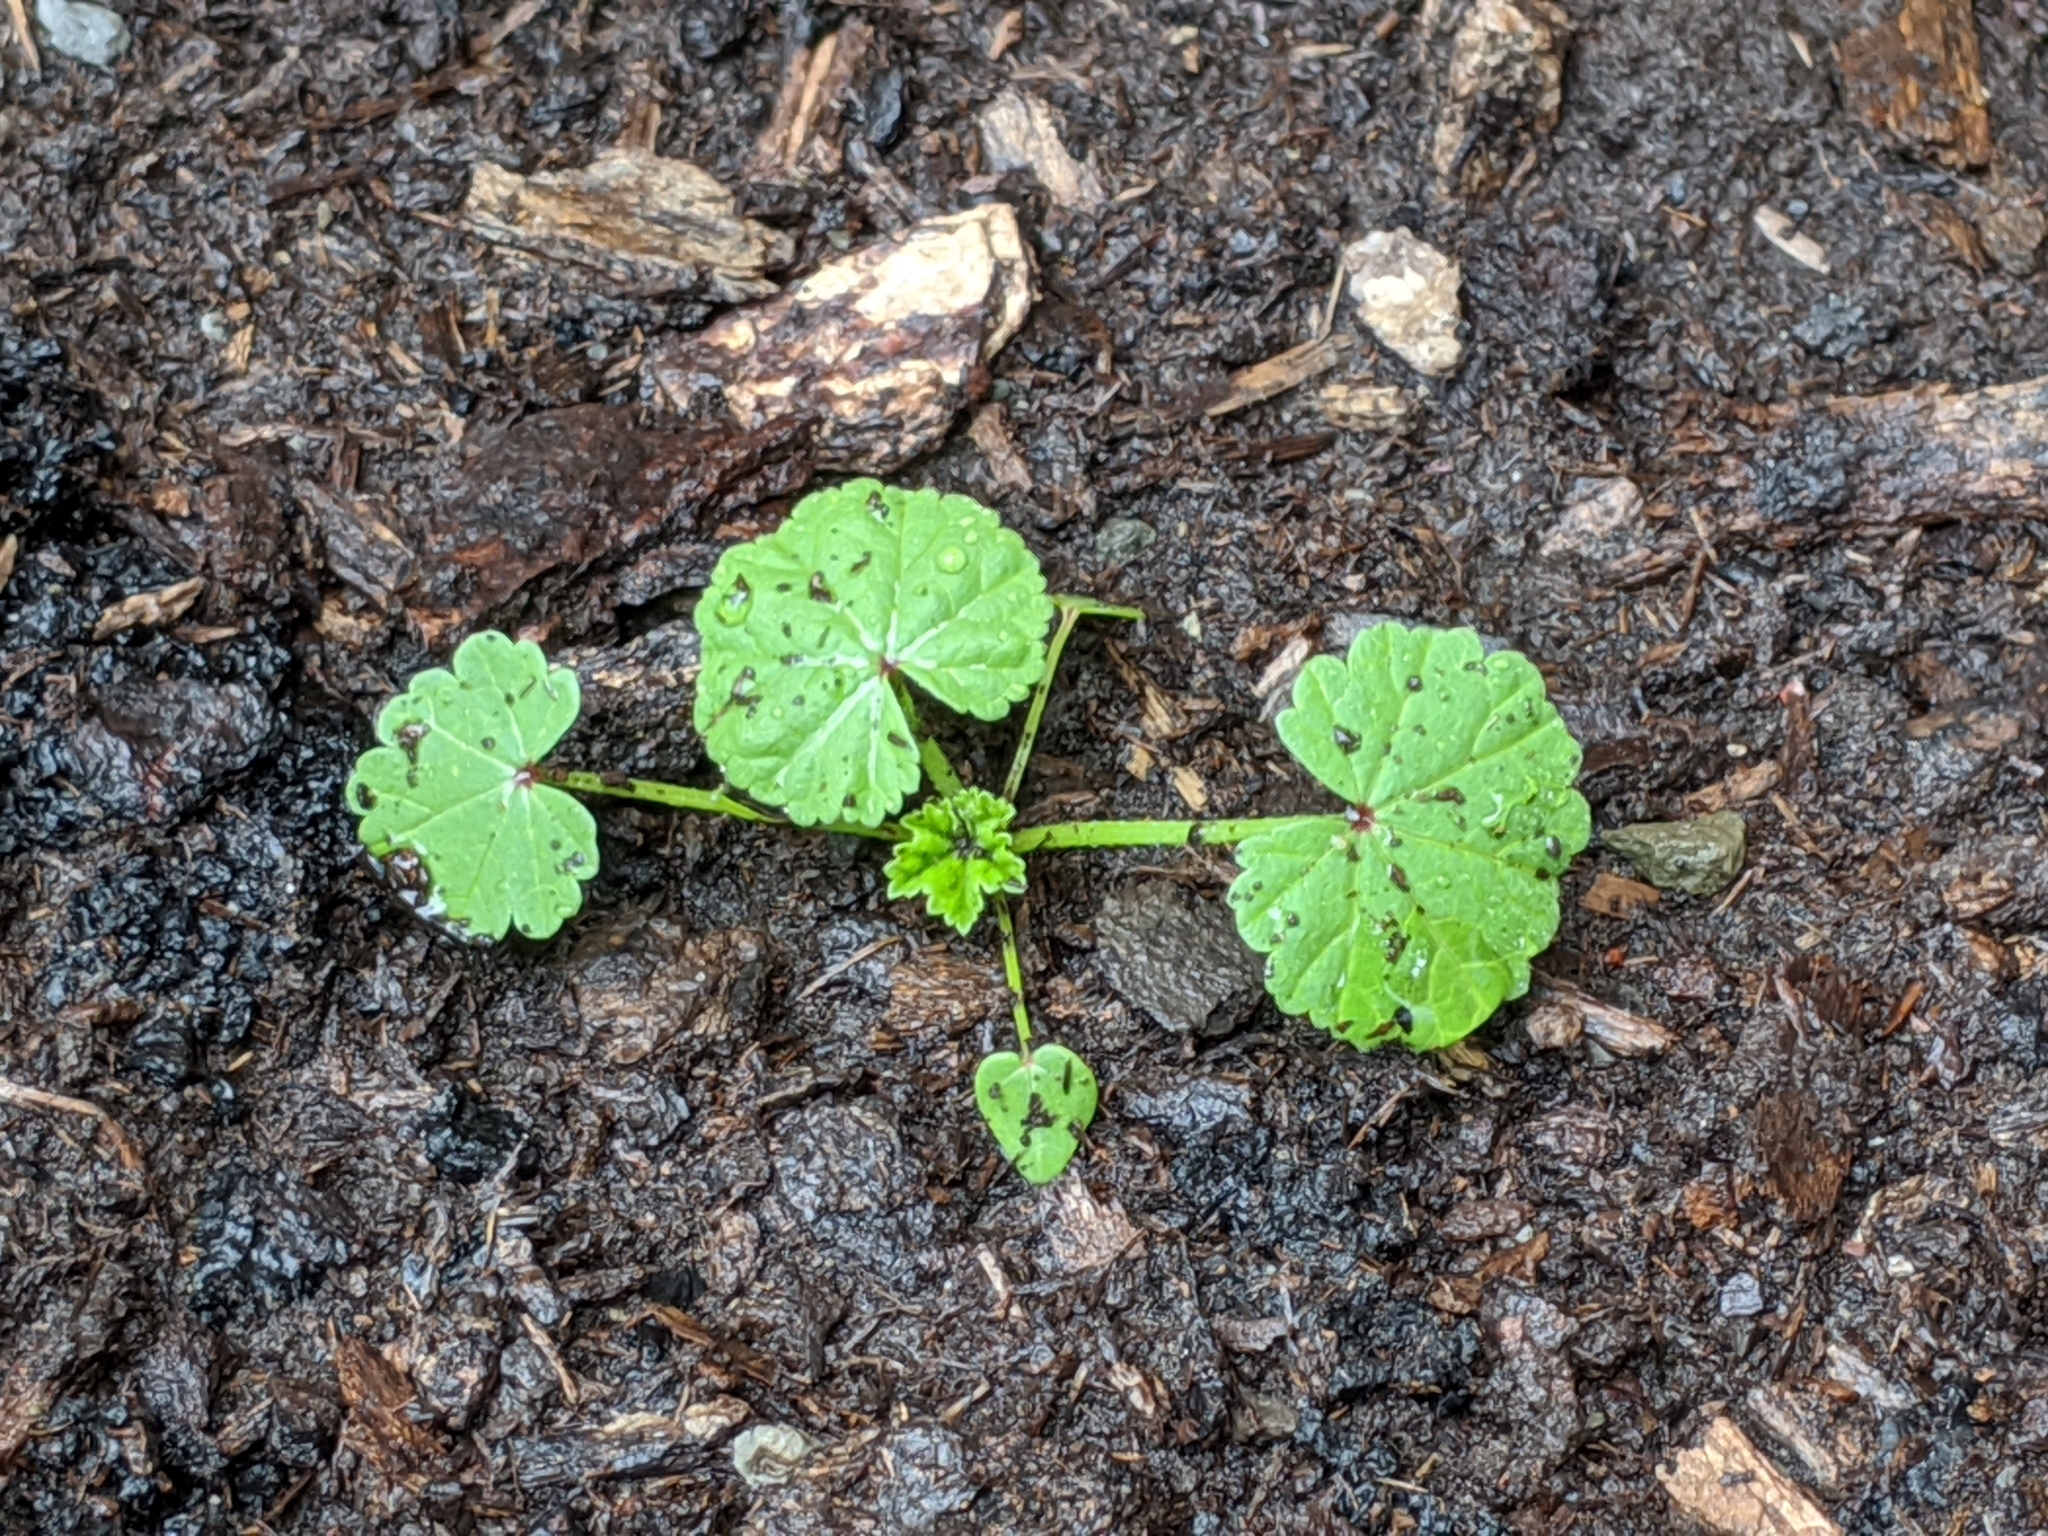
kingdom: Plantae
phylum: Tracheophyta
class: Magnoliopsida
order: Malvales
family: Malvaceae
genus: Malva
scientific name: Malva neglecta
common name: Common mallow
